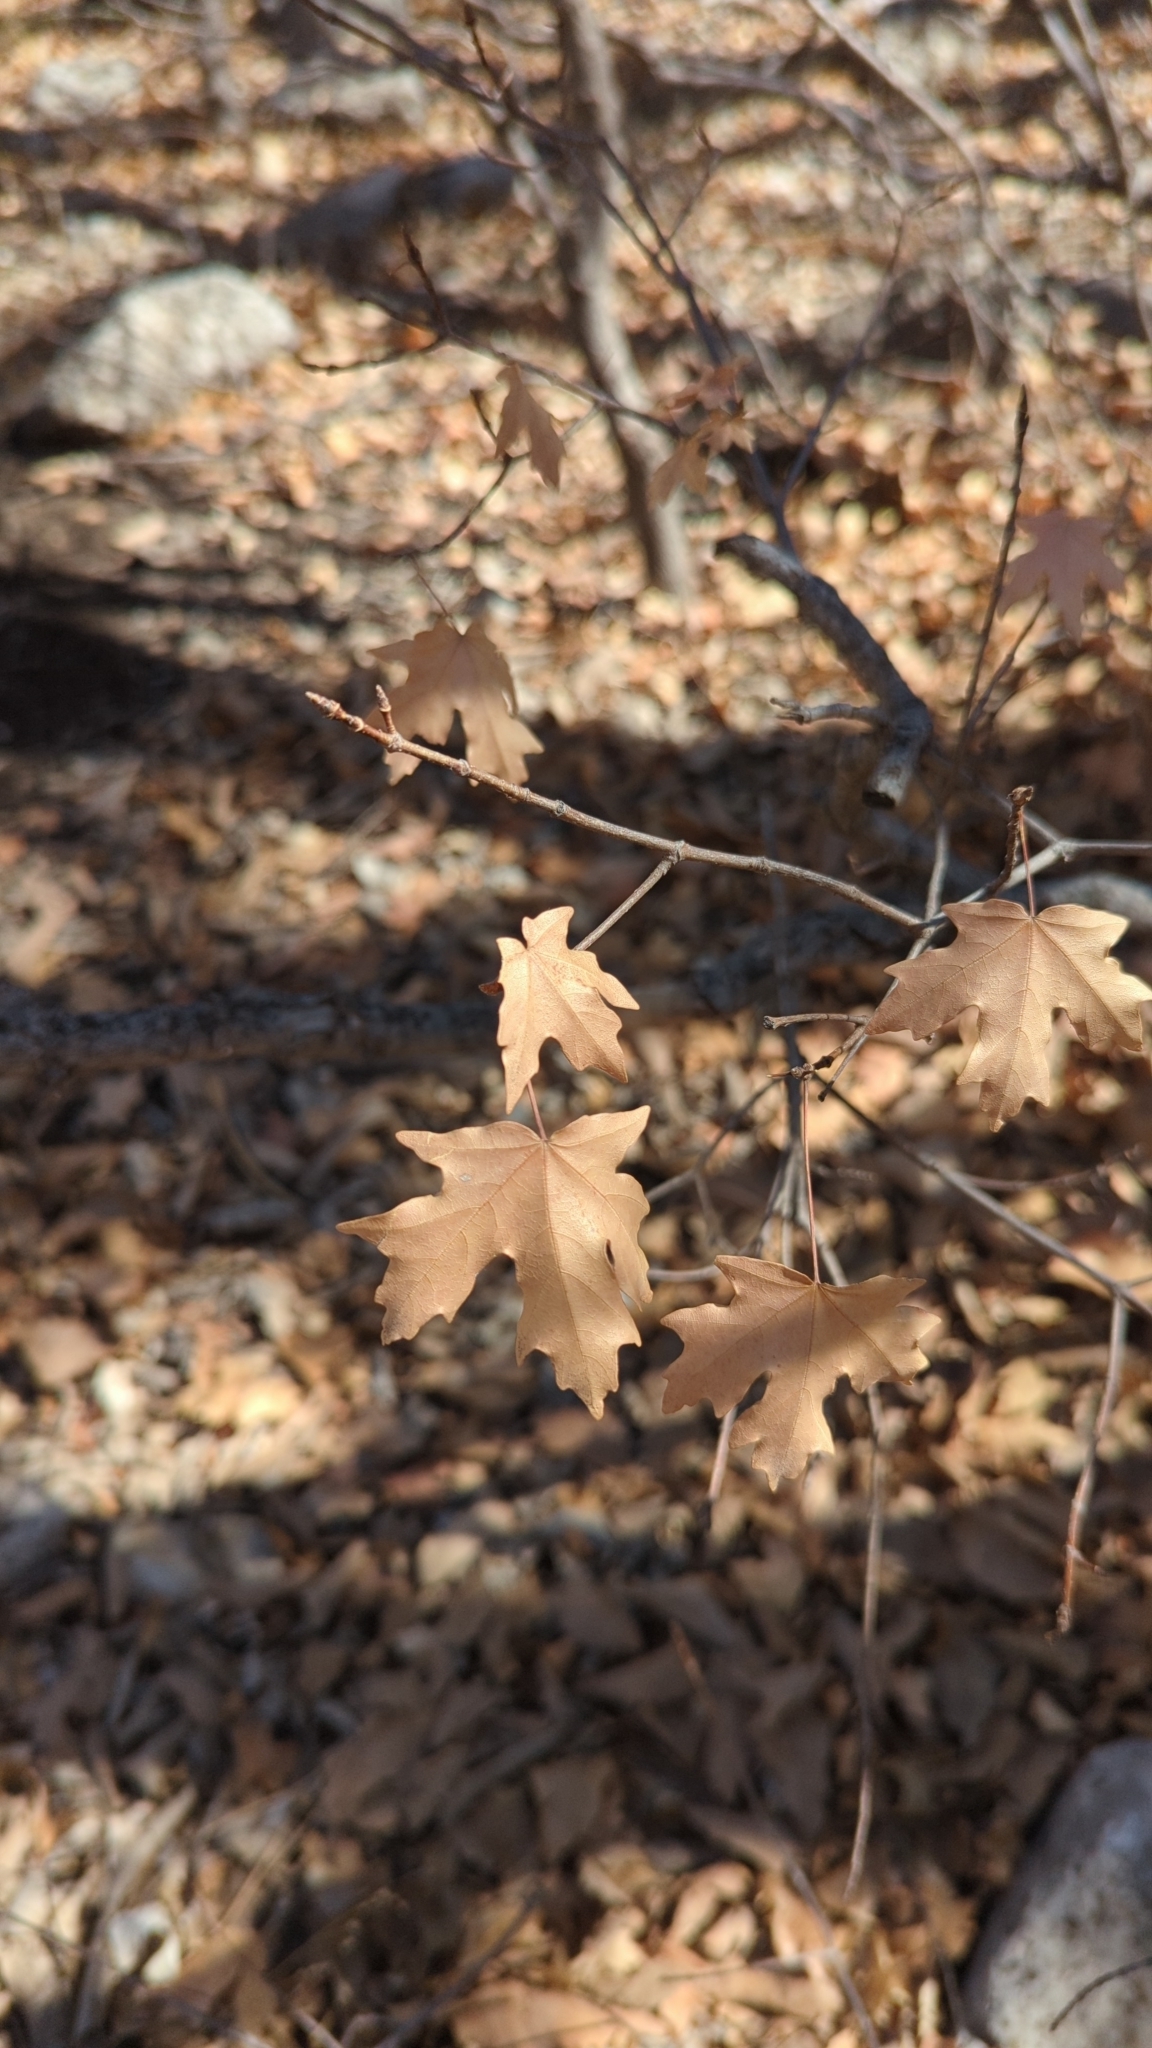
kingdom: Plantae
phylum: Tracheophyta
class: Magnoliopsida
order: Sapindales
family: Sapindaceae
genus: Acer
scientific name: Acer grandidentatum
